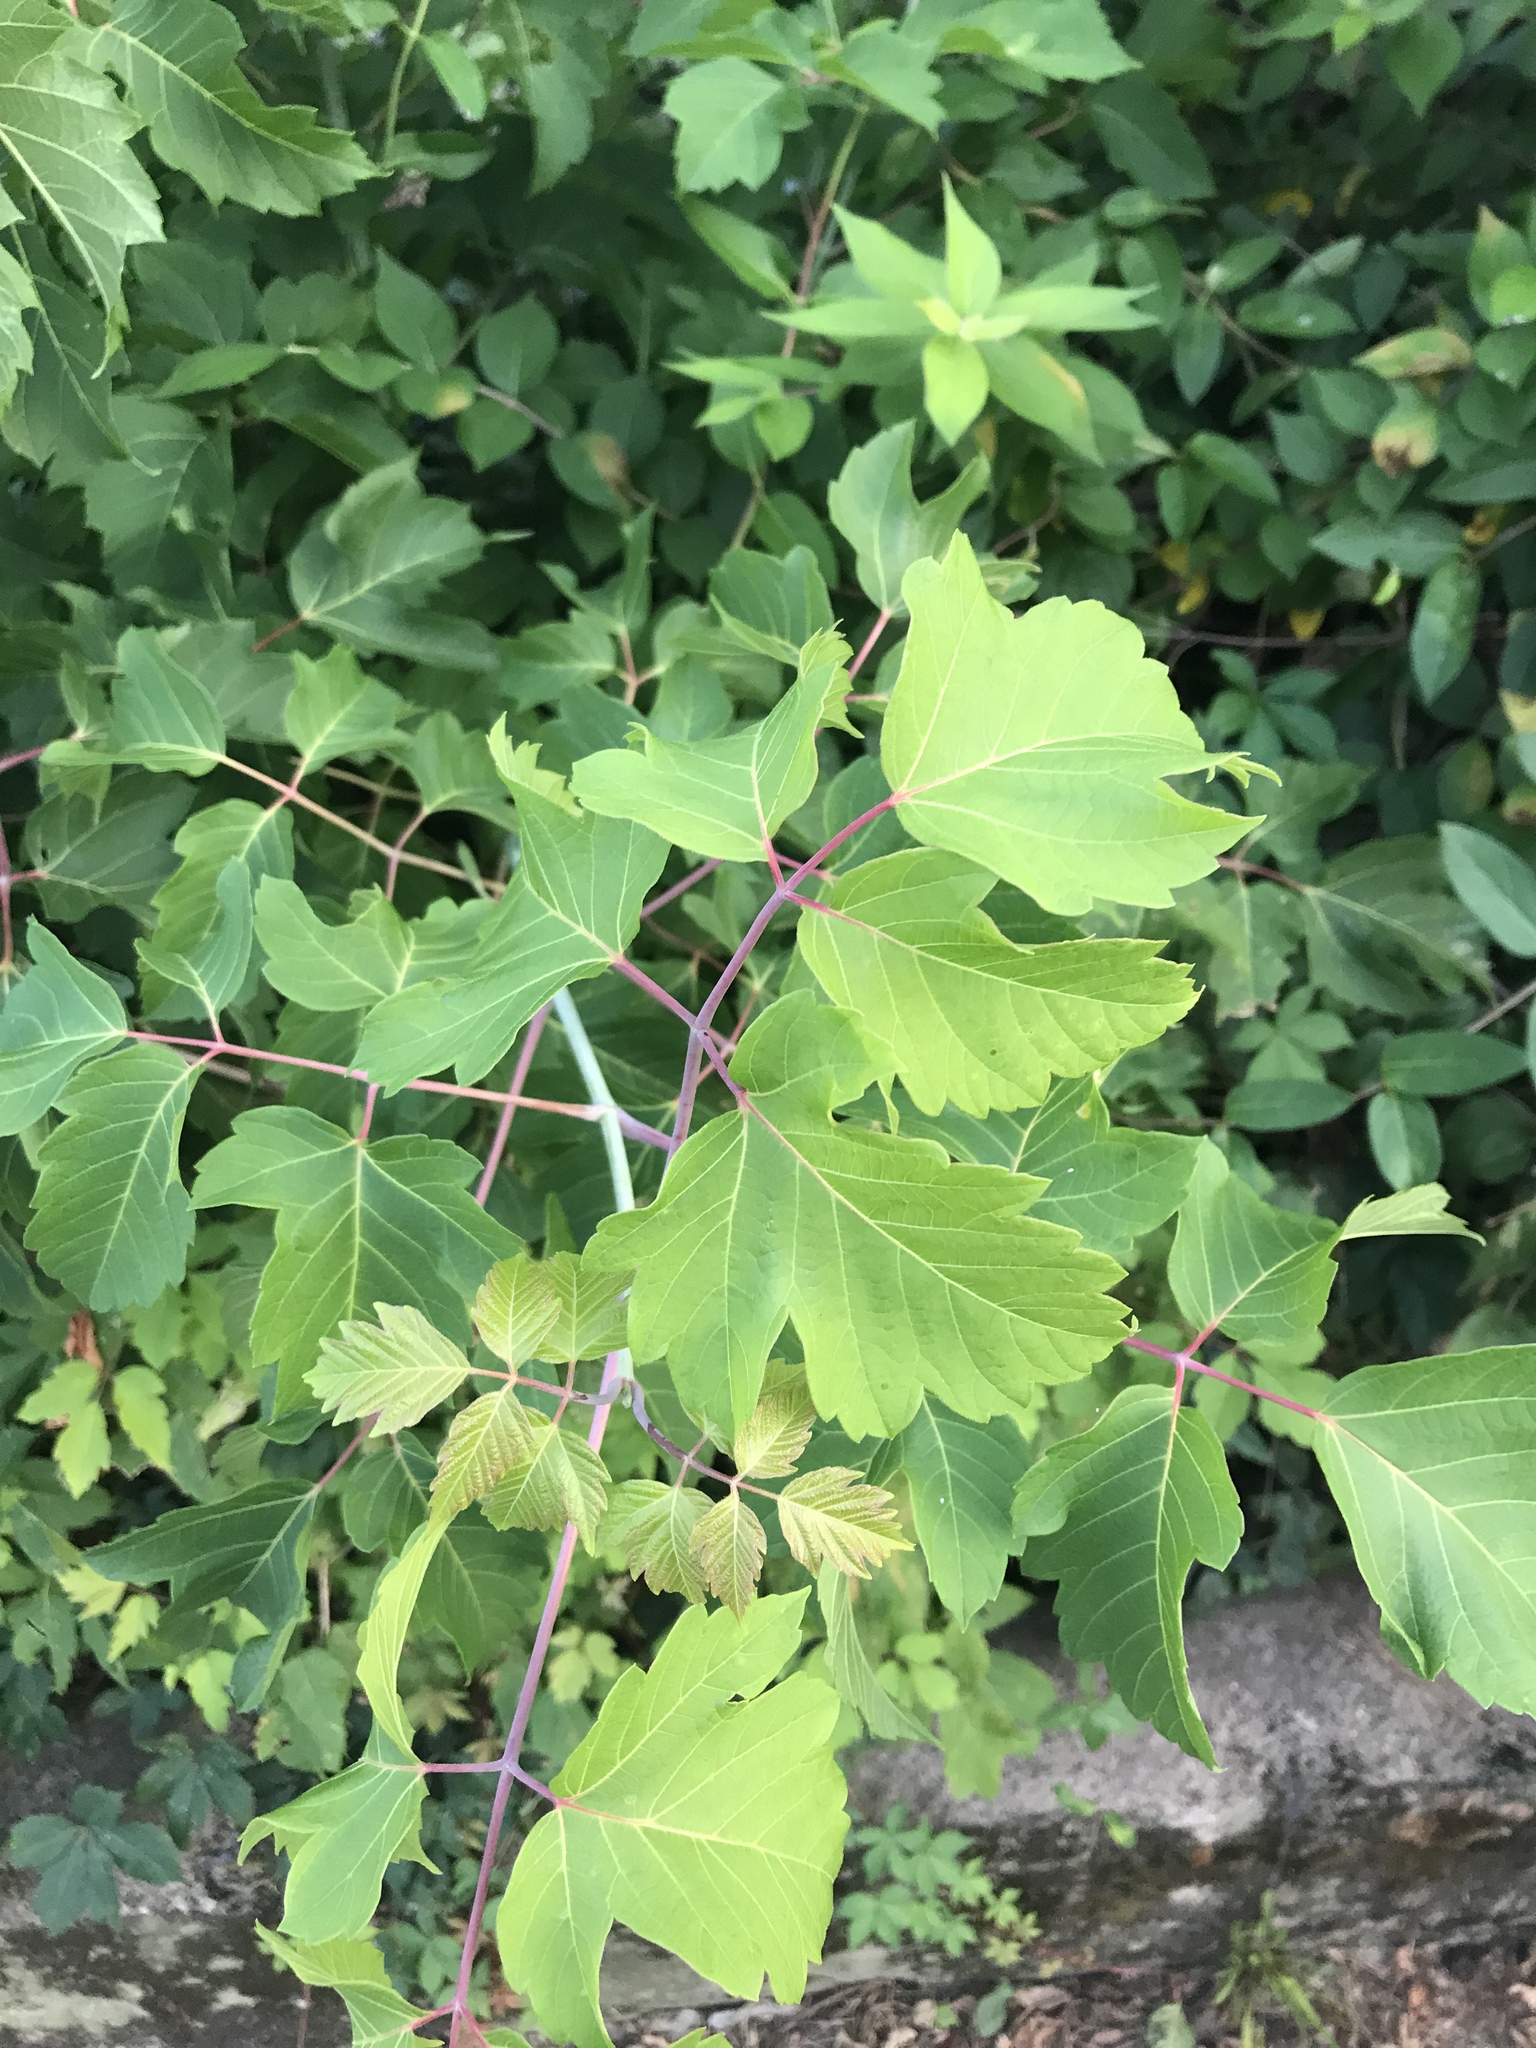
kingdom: Plantae
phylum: Tracheophyta
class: Magnoliopsida
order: Sapindales
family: Sapindaceae
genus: Acer
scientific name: Acer negundo
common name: Ashleaf maple
